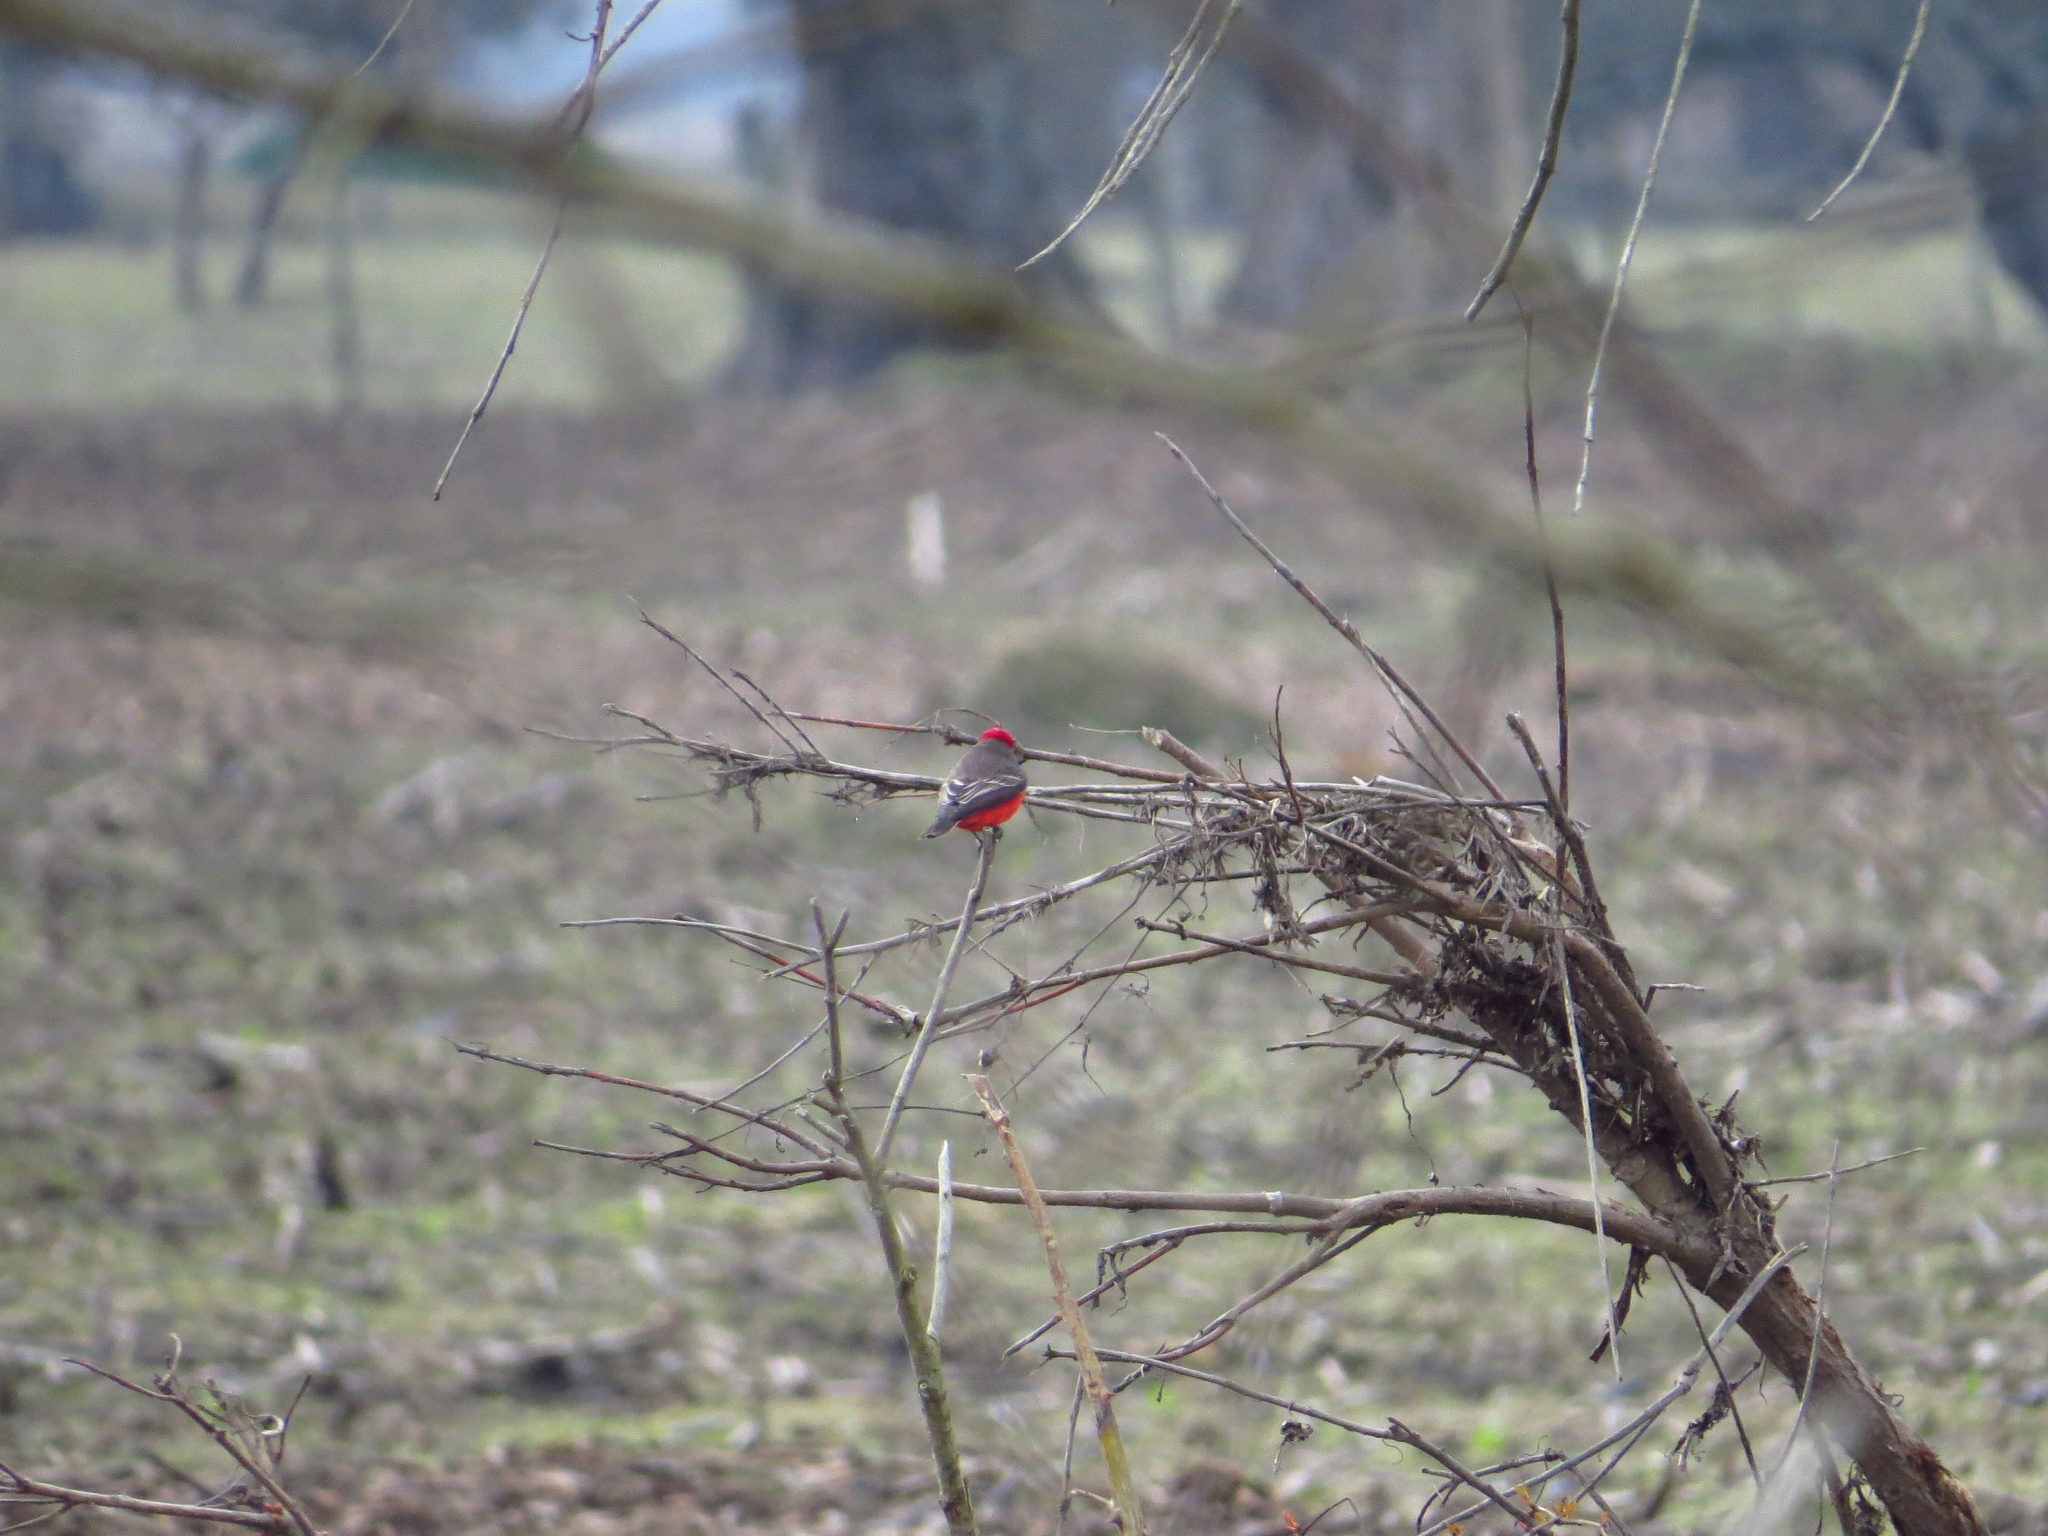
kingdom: Animalia
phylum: Chordata
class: Aves
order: Passeriformes
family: Tyrannidae
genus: Pyrocephalus
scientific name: Pyrocephalus rubinus
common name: Vermilion flycatcher
